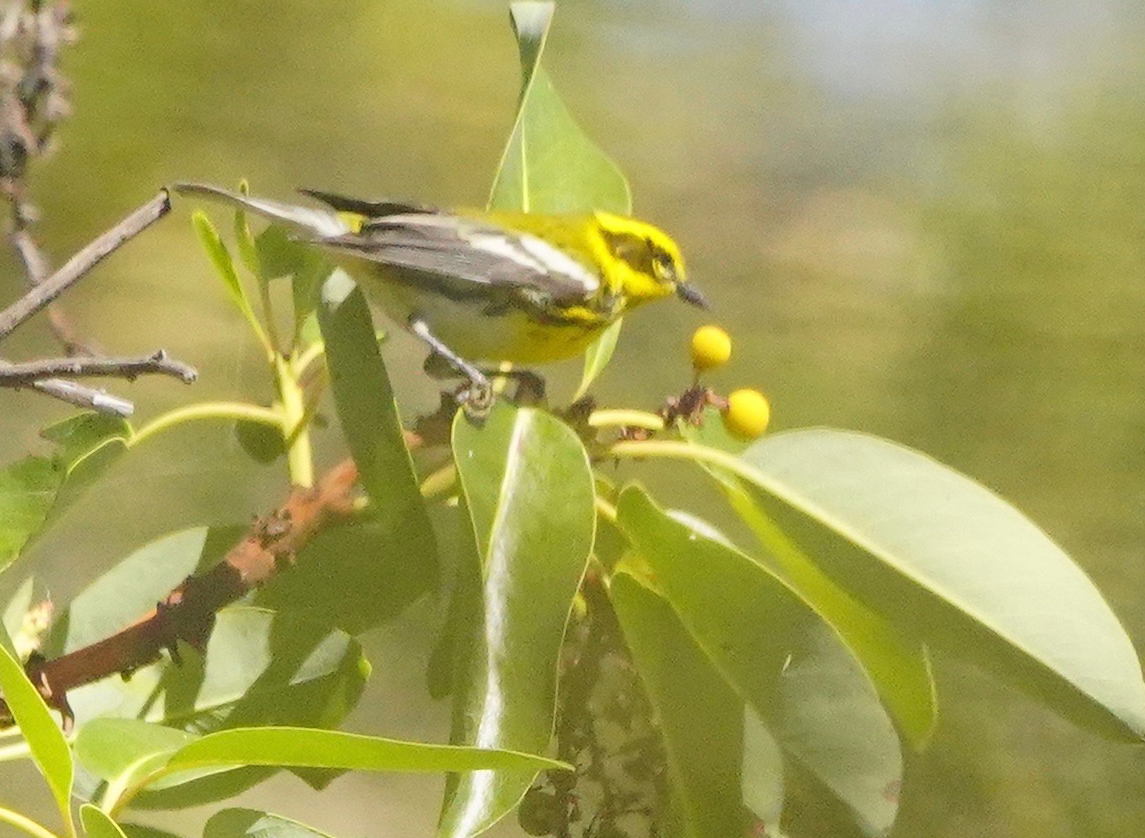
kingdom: Animalia
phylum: Chordata
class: Aves
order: Passeriformes
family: Parulidae
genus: Setophaga
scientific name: Setophaga townsendi
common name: Townsend's warbler
